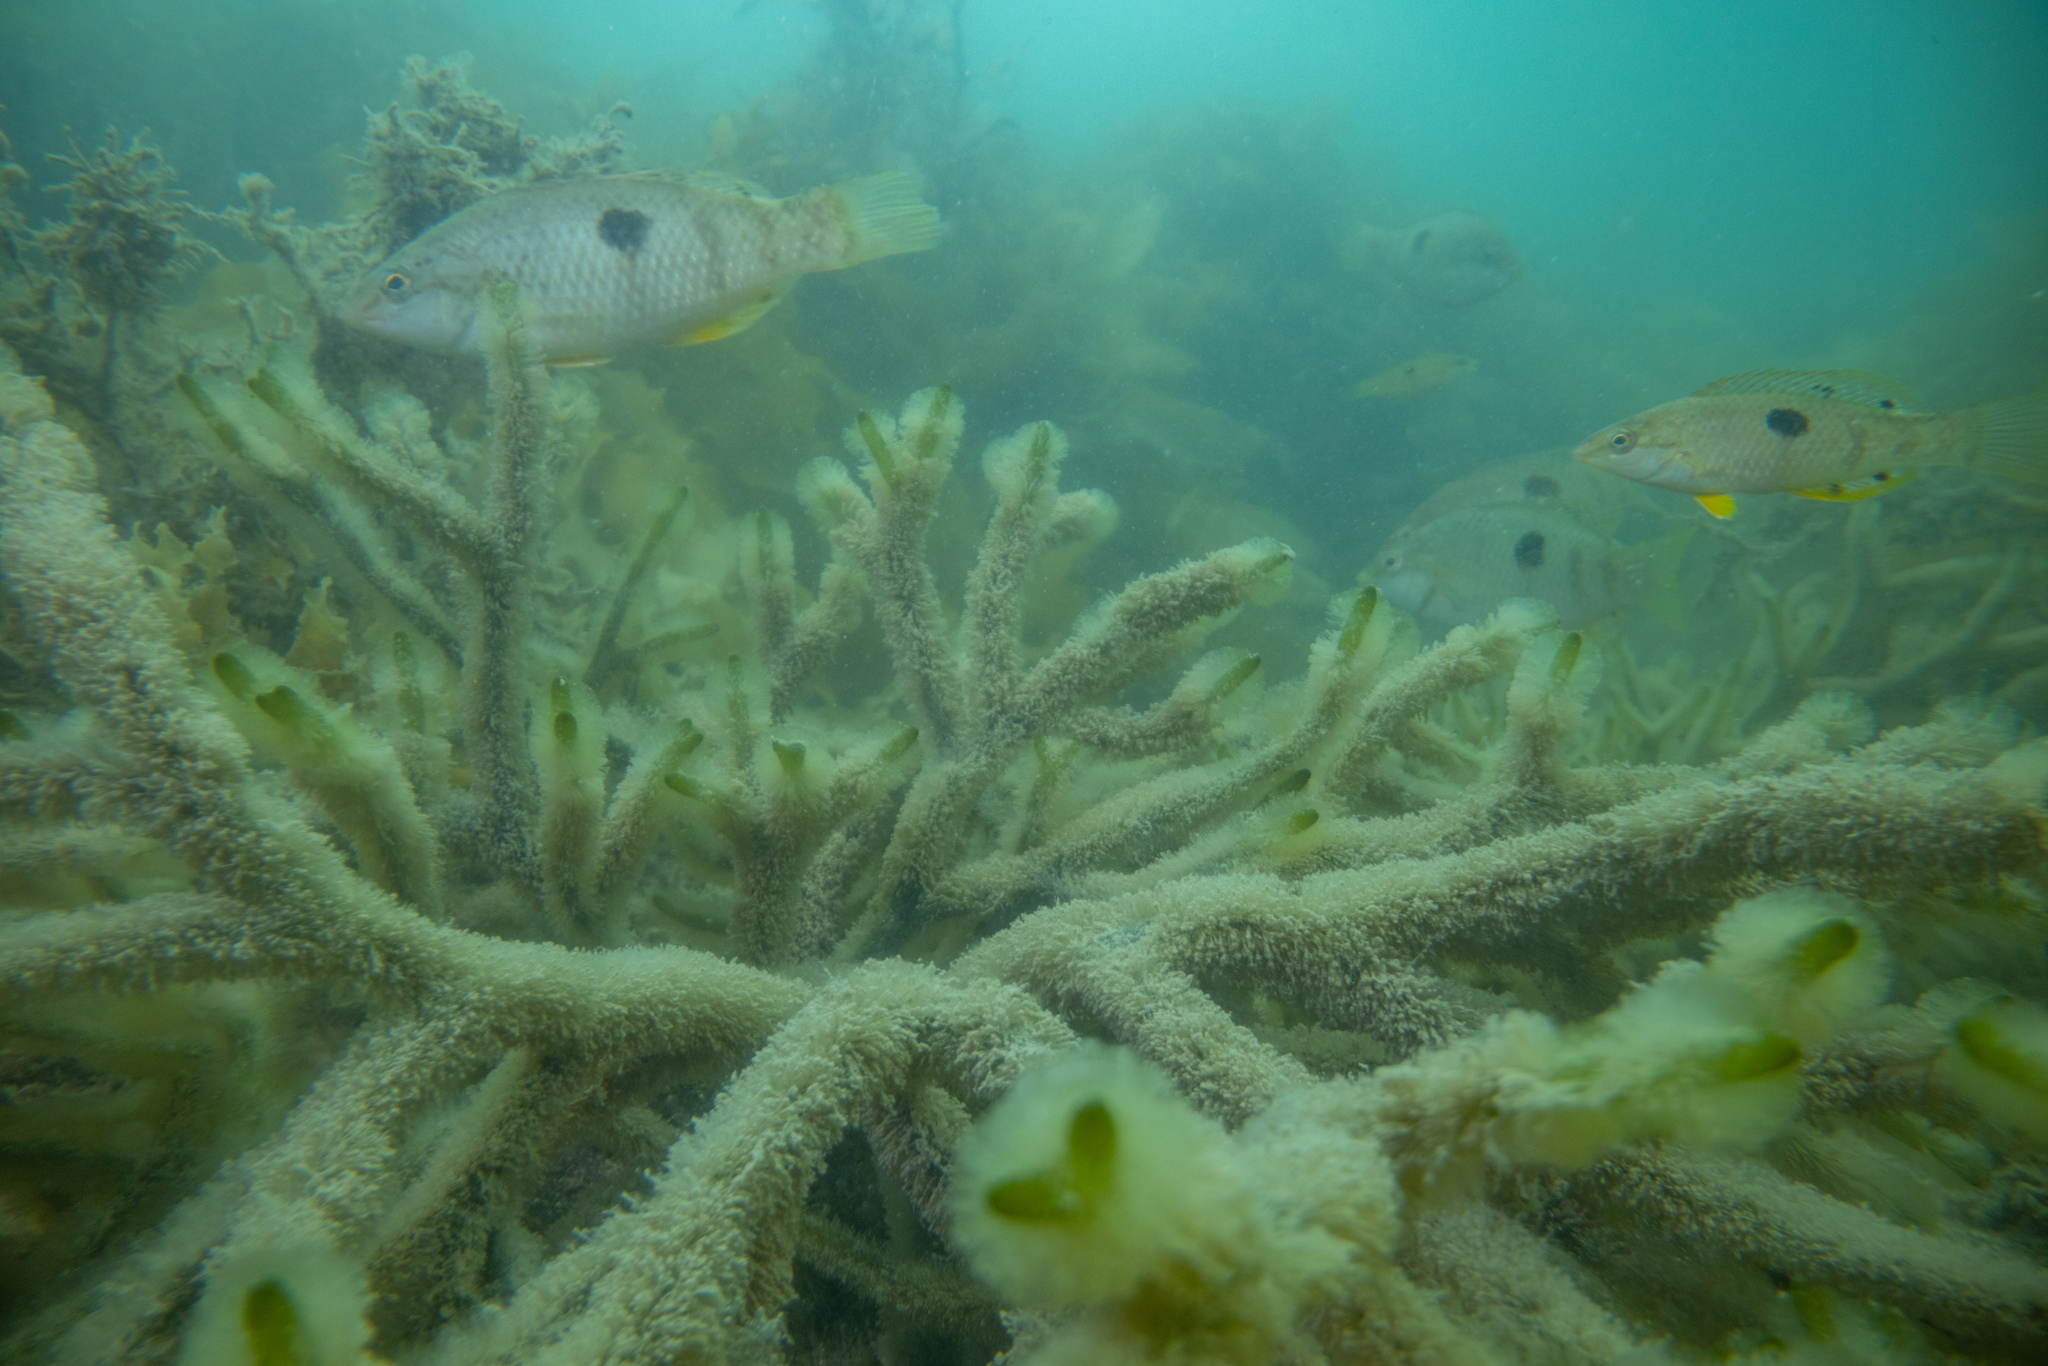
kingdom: Animalia
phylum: Chordata
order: Perciformes
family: Labridae
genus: Notolabrus
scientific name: Notolabrus celidotus
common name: Spotty
